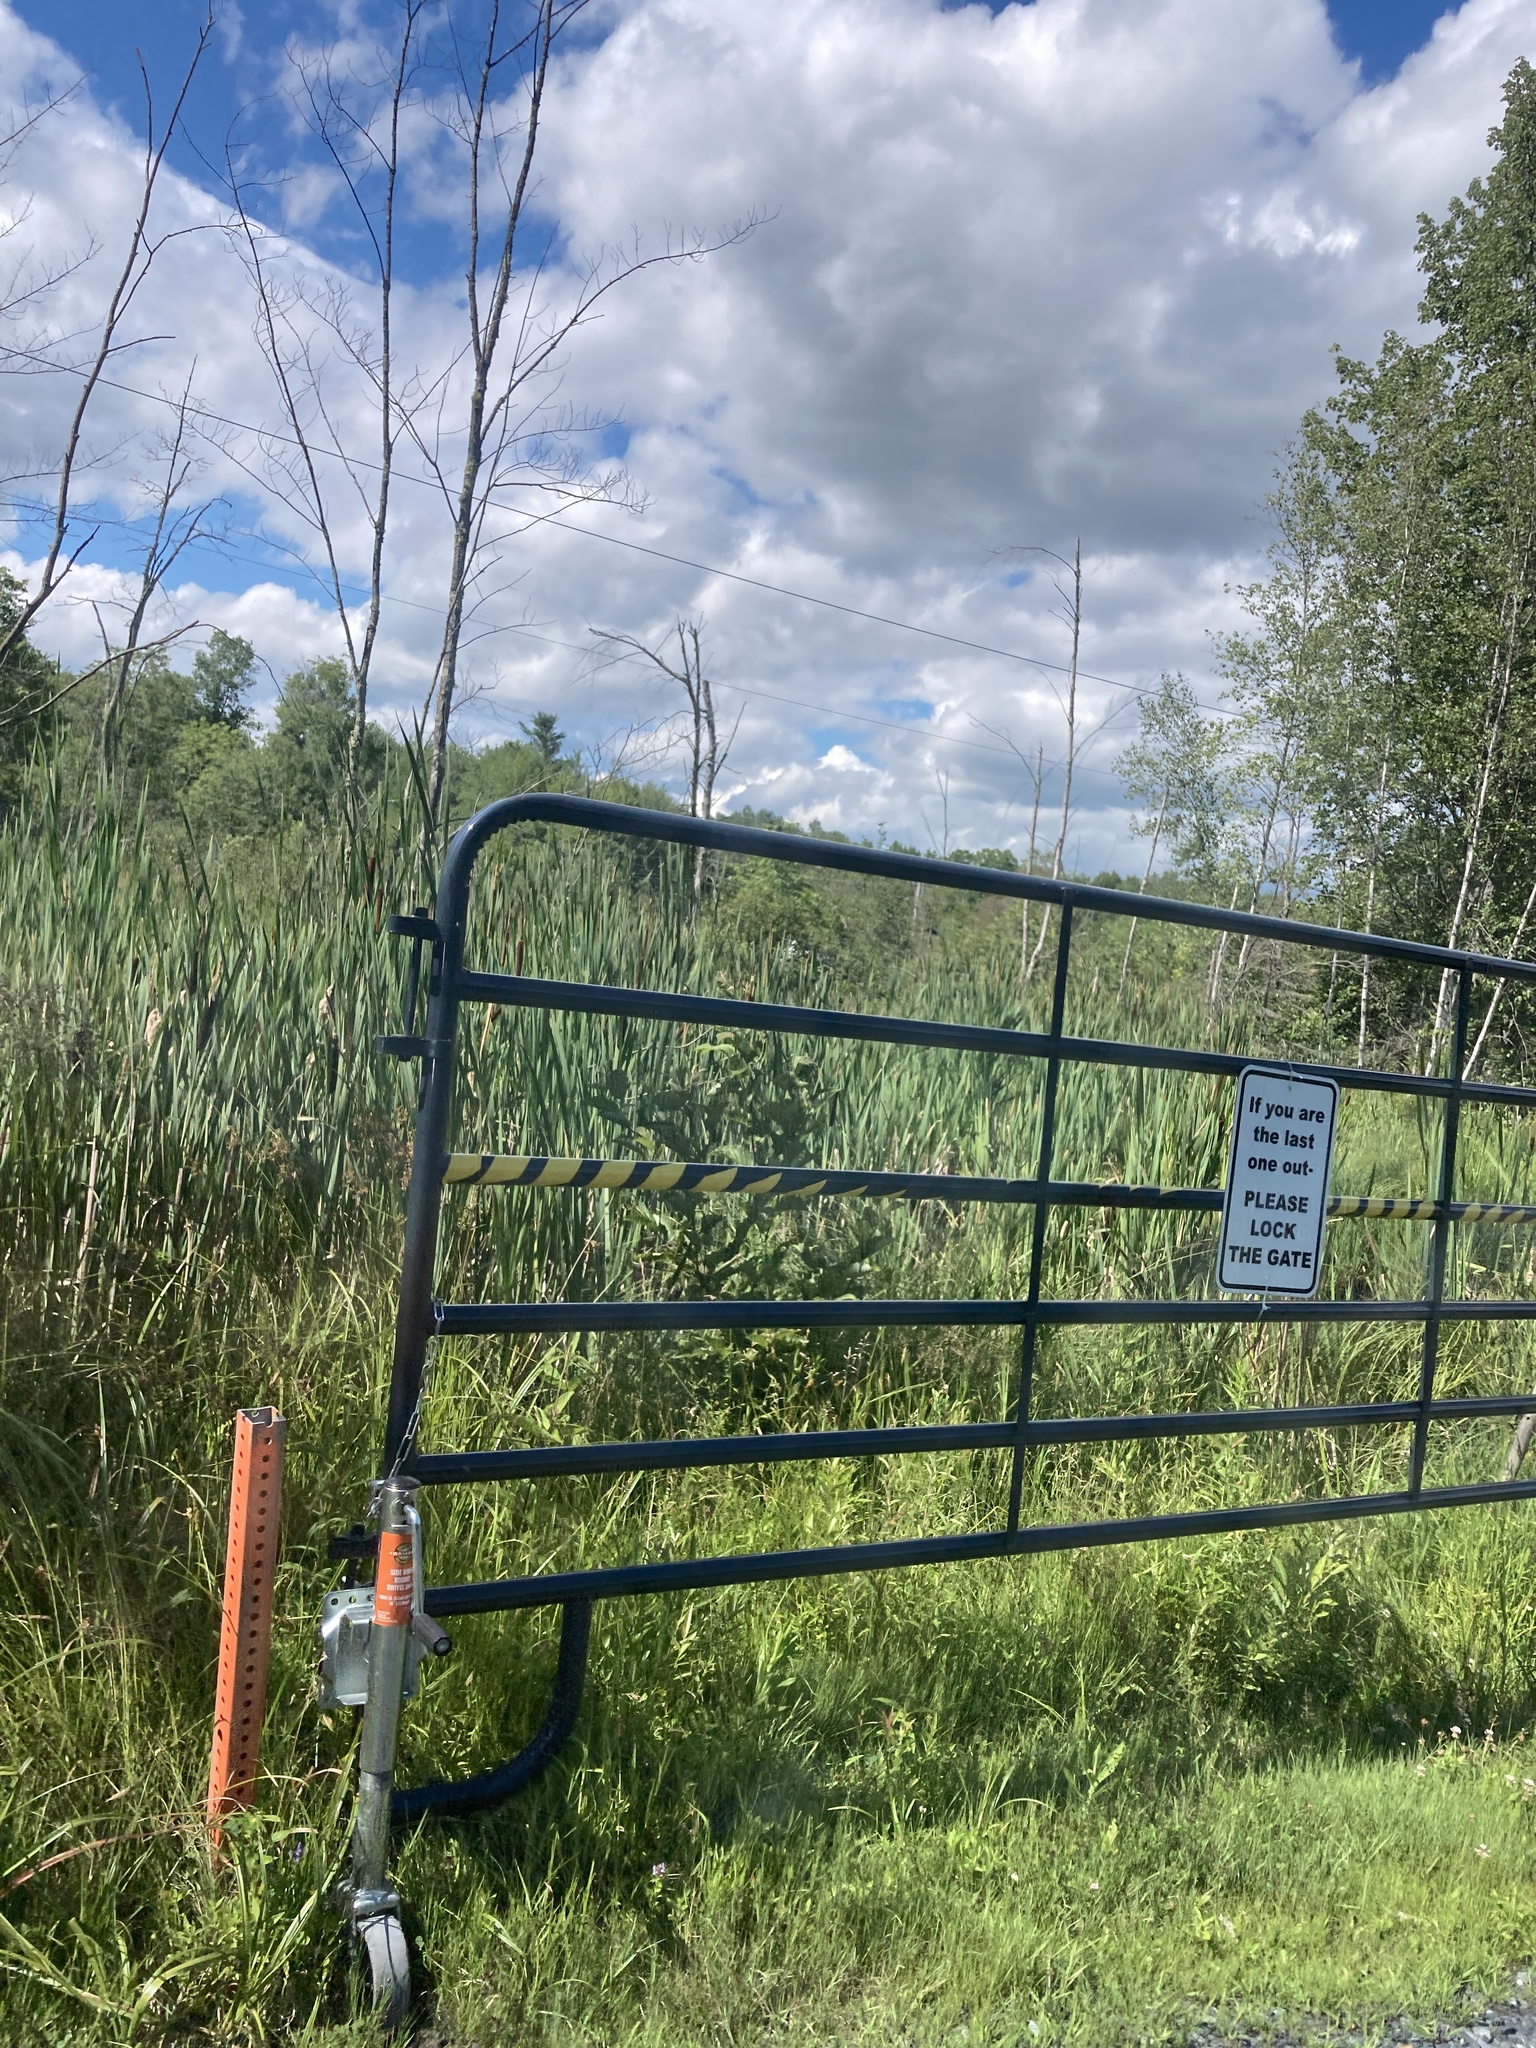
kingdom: Plantae
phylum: Tracheophyta
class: Liliopsida
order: Poales
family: Typhaceae
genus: Typha
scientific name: Typha latifolia
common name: Broadleaf cattail
